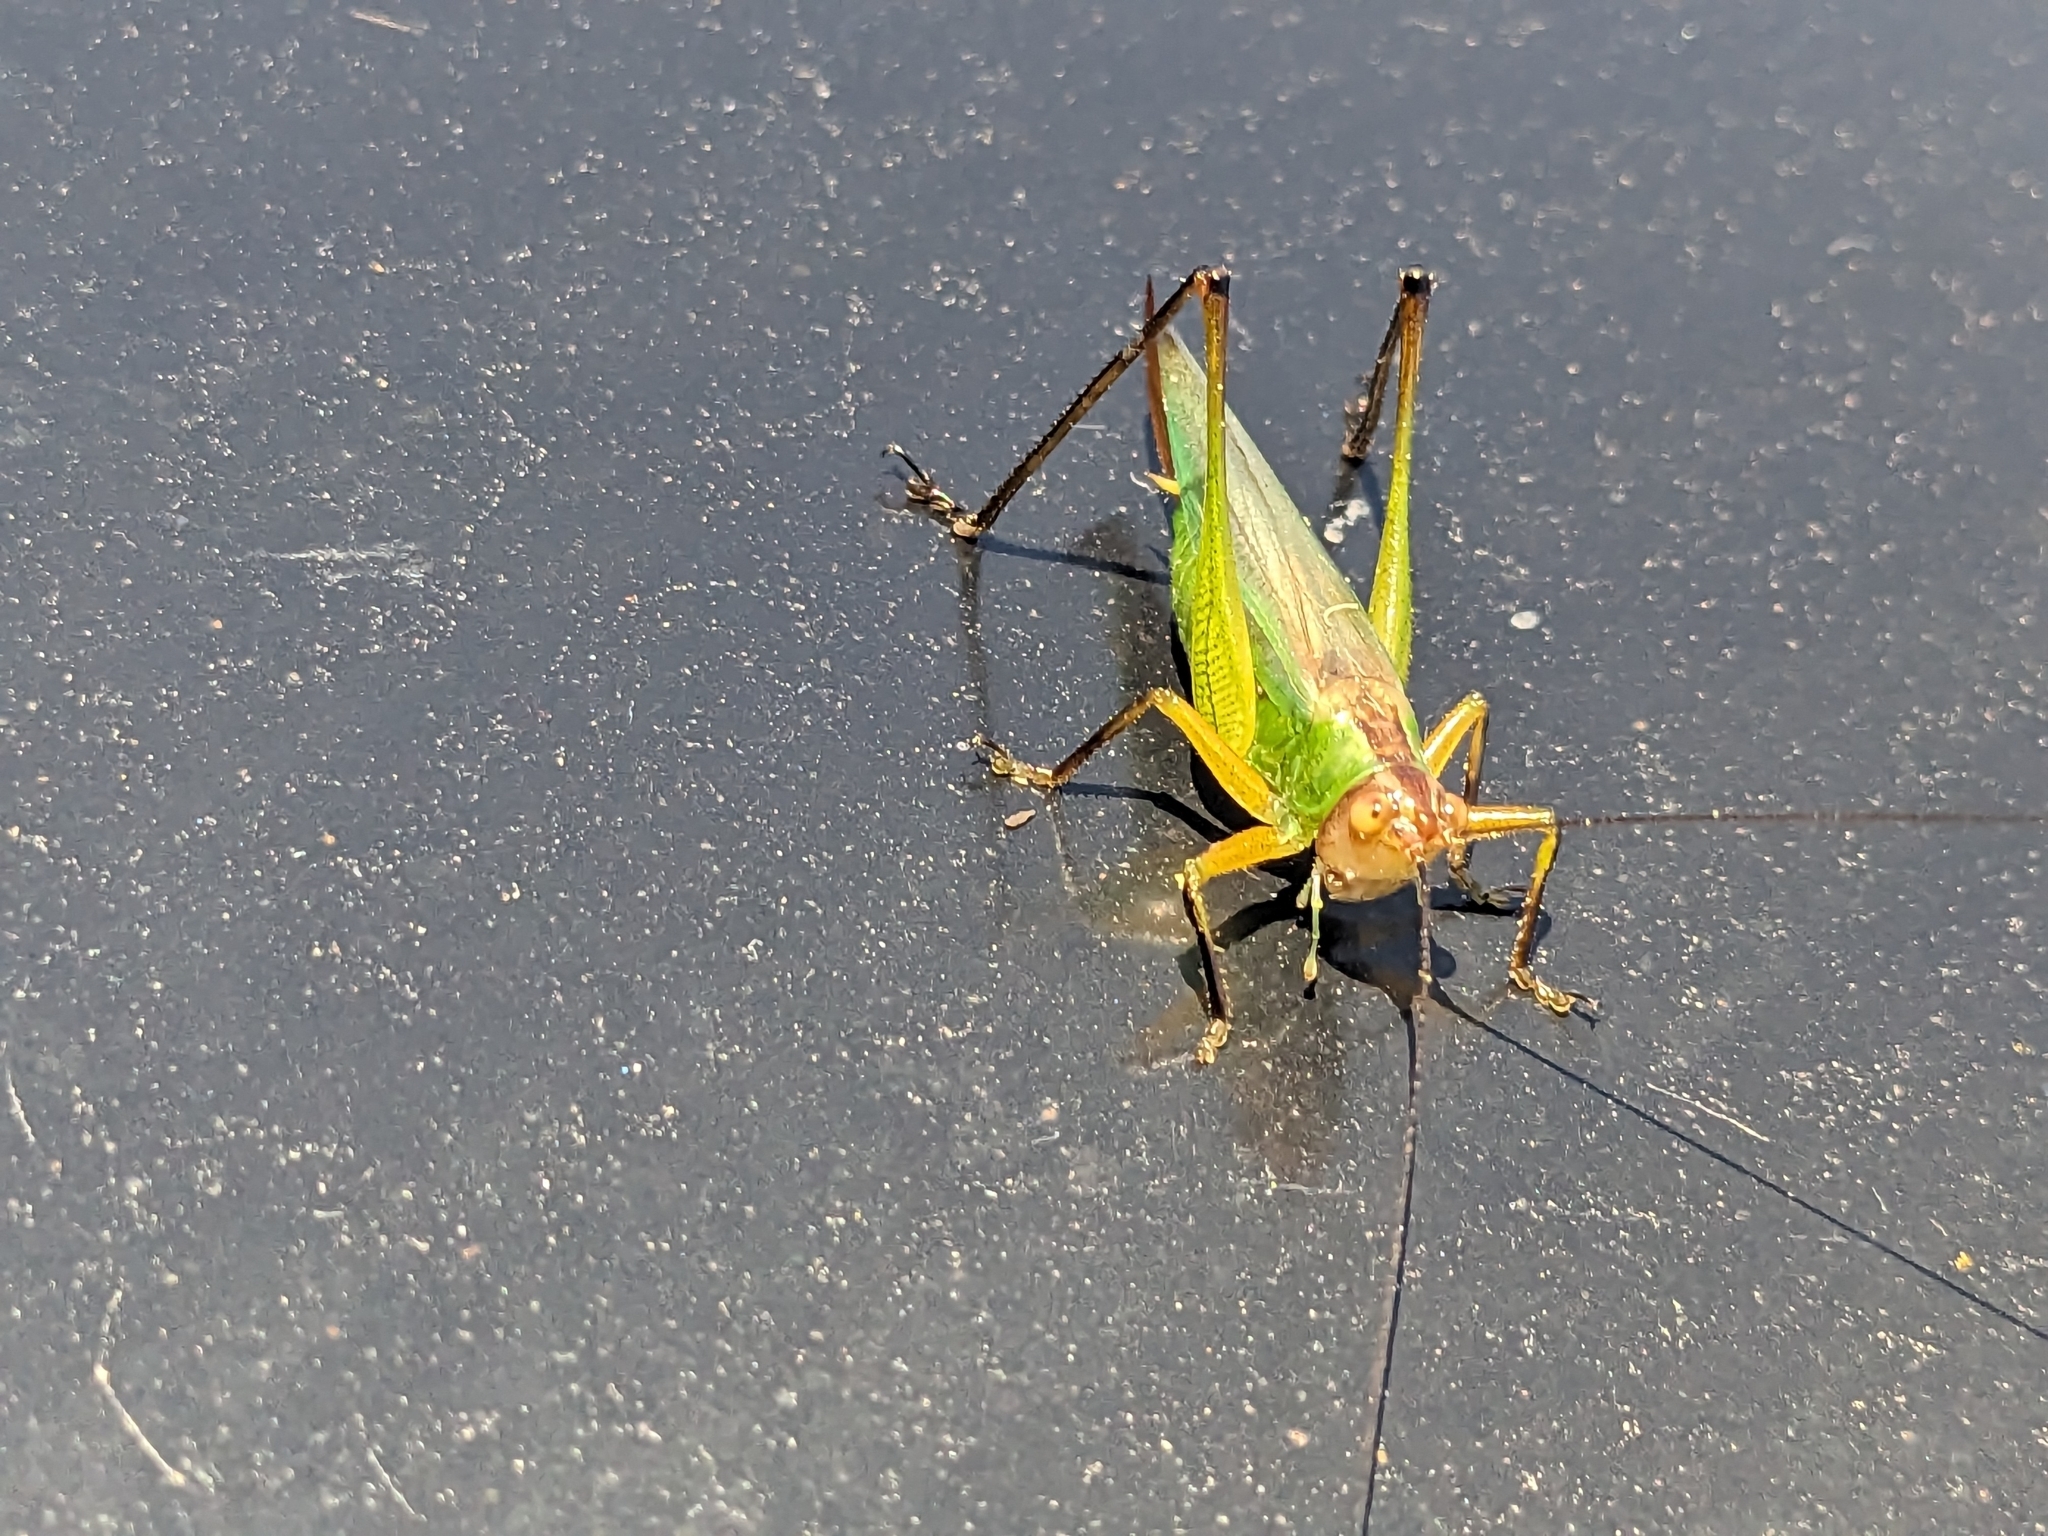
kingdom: Animalia
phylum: Arthropoda
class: Insecta
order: Orthoptera
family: Tettigoniidae
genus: Orchelimum
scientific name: Orchelimum nigripes
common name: Black-legged meadow katydid
